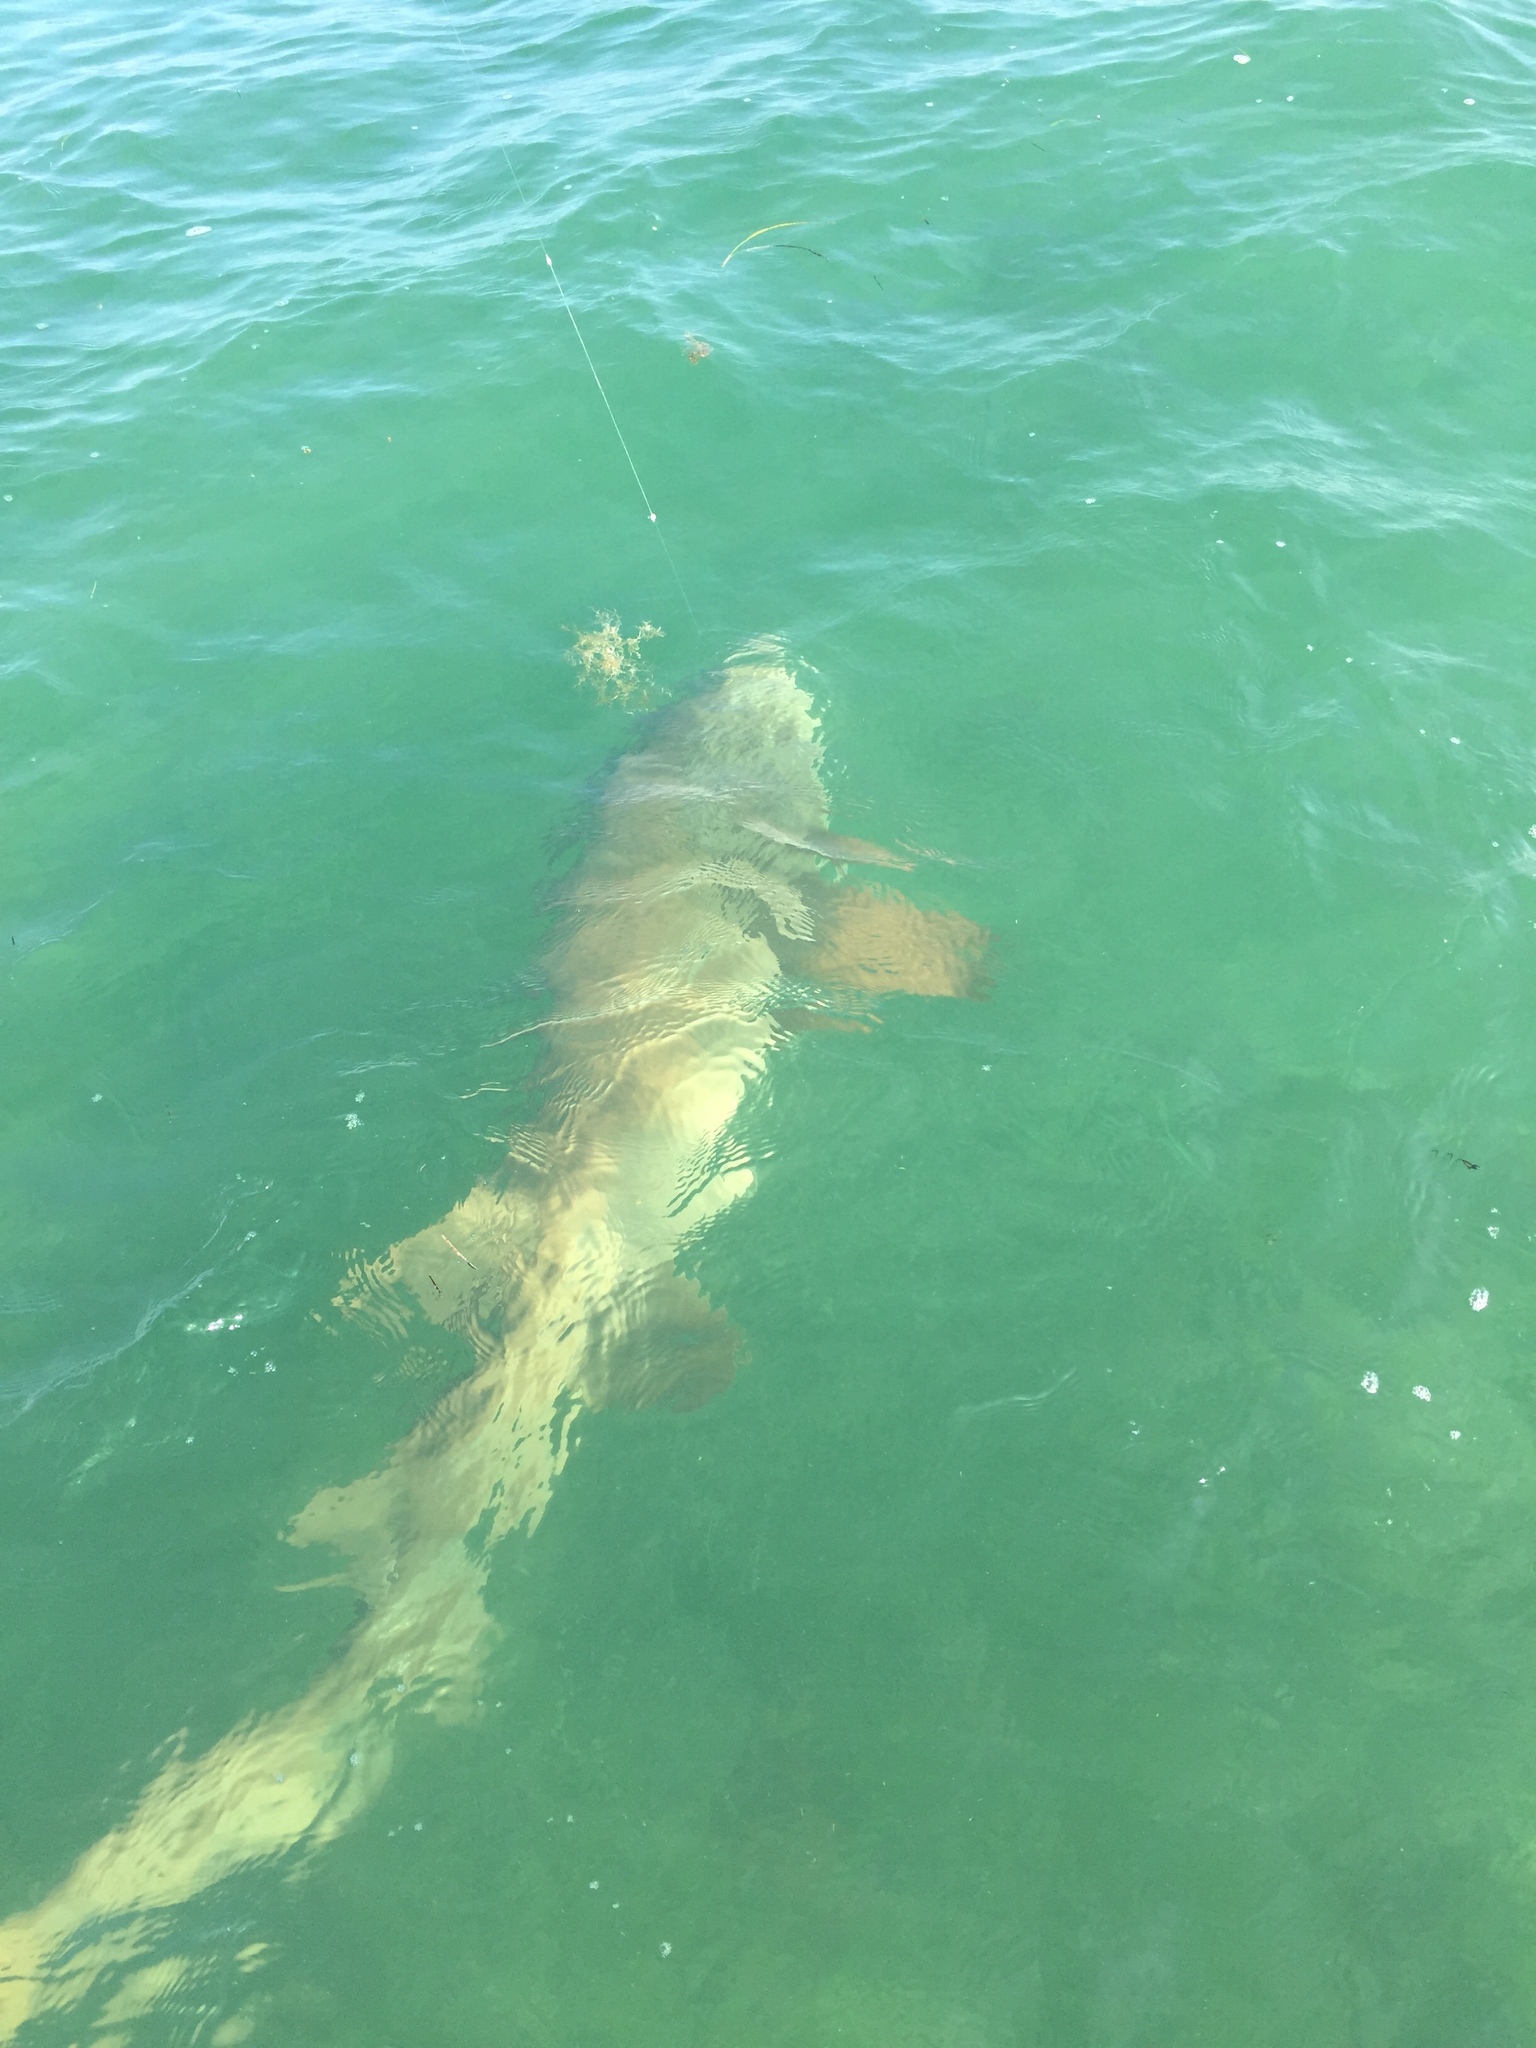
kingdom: Animalia
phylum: Chordata
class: Elasmobranchii
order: Orectolobiformes
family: Ginglymostomatidae
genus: Ginglymostoma
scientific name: Ginglymostoma cirratum
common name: Nurse shark
